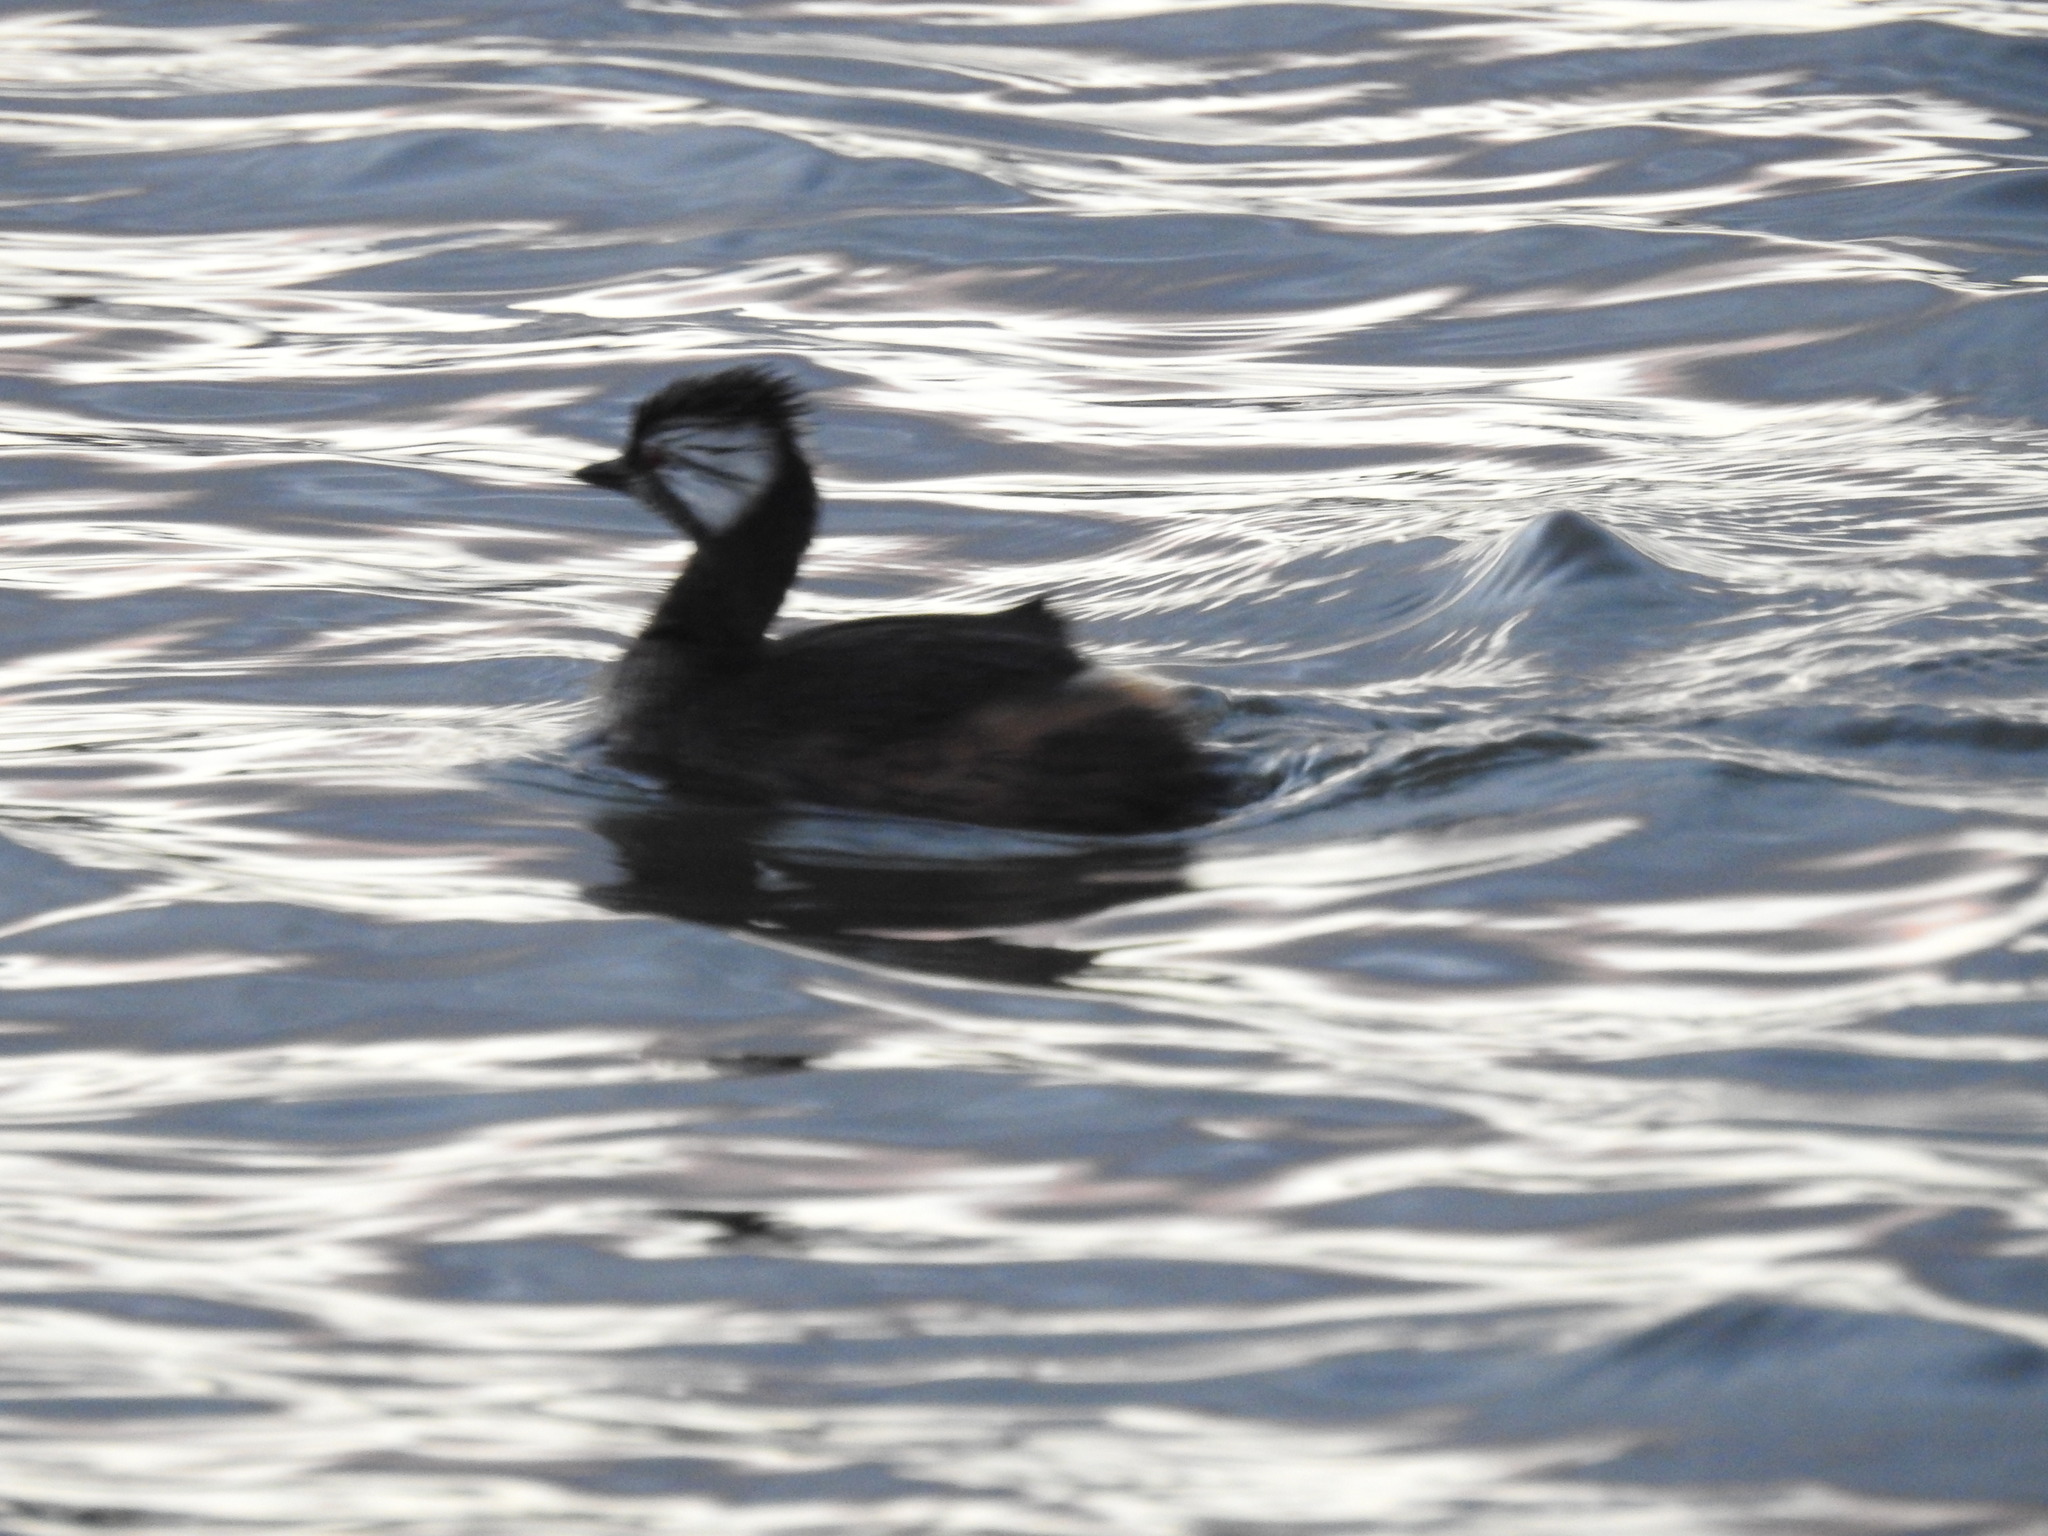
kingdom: Animalia
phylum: Chordata
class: Aves
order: Podicipediformes
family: Podicipedidae
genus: Rollandia
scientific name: Rollandia rolland
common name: White-tufted grebe
